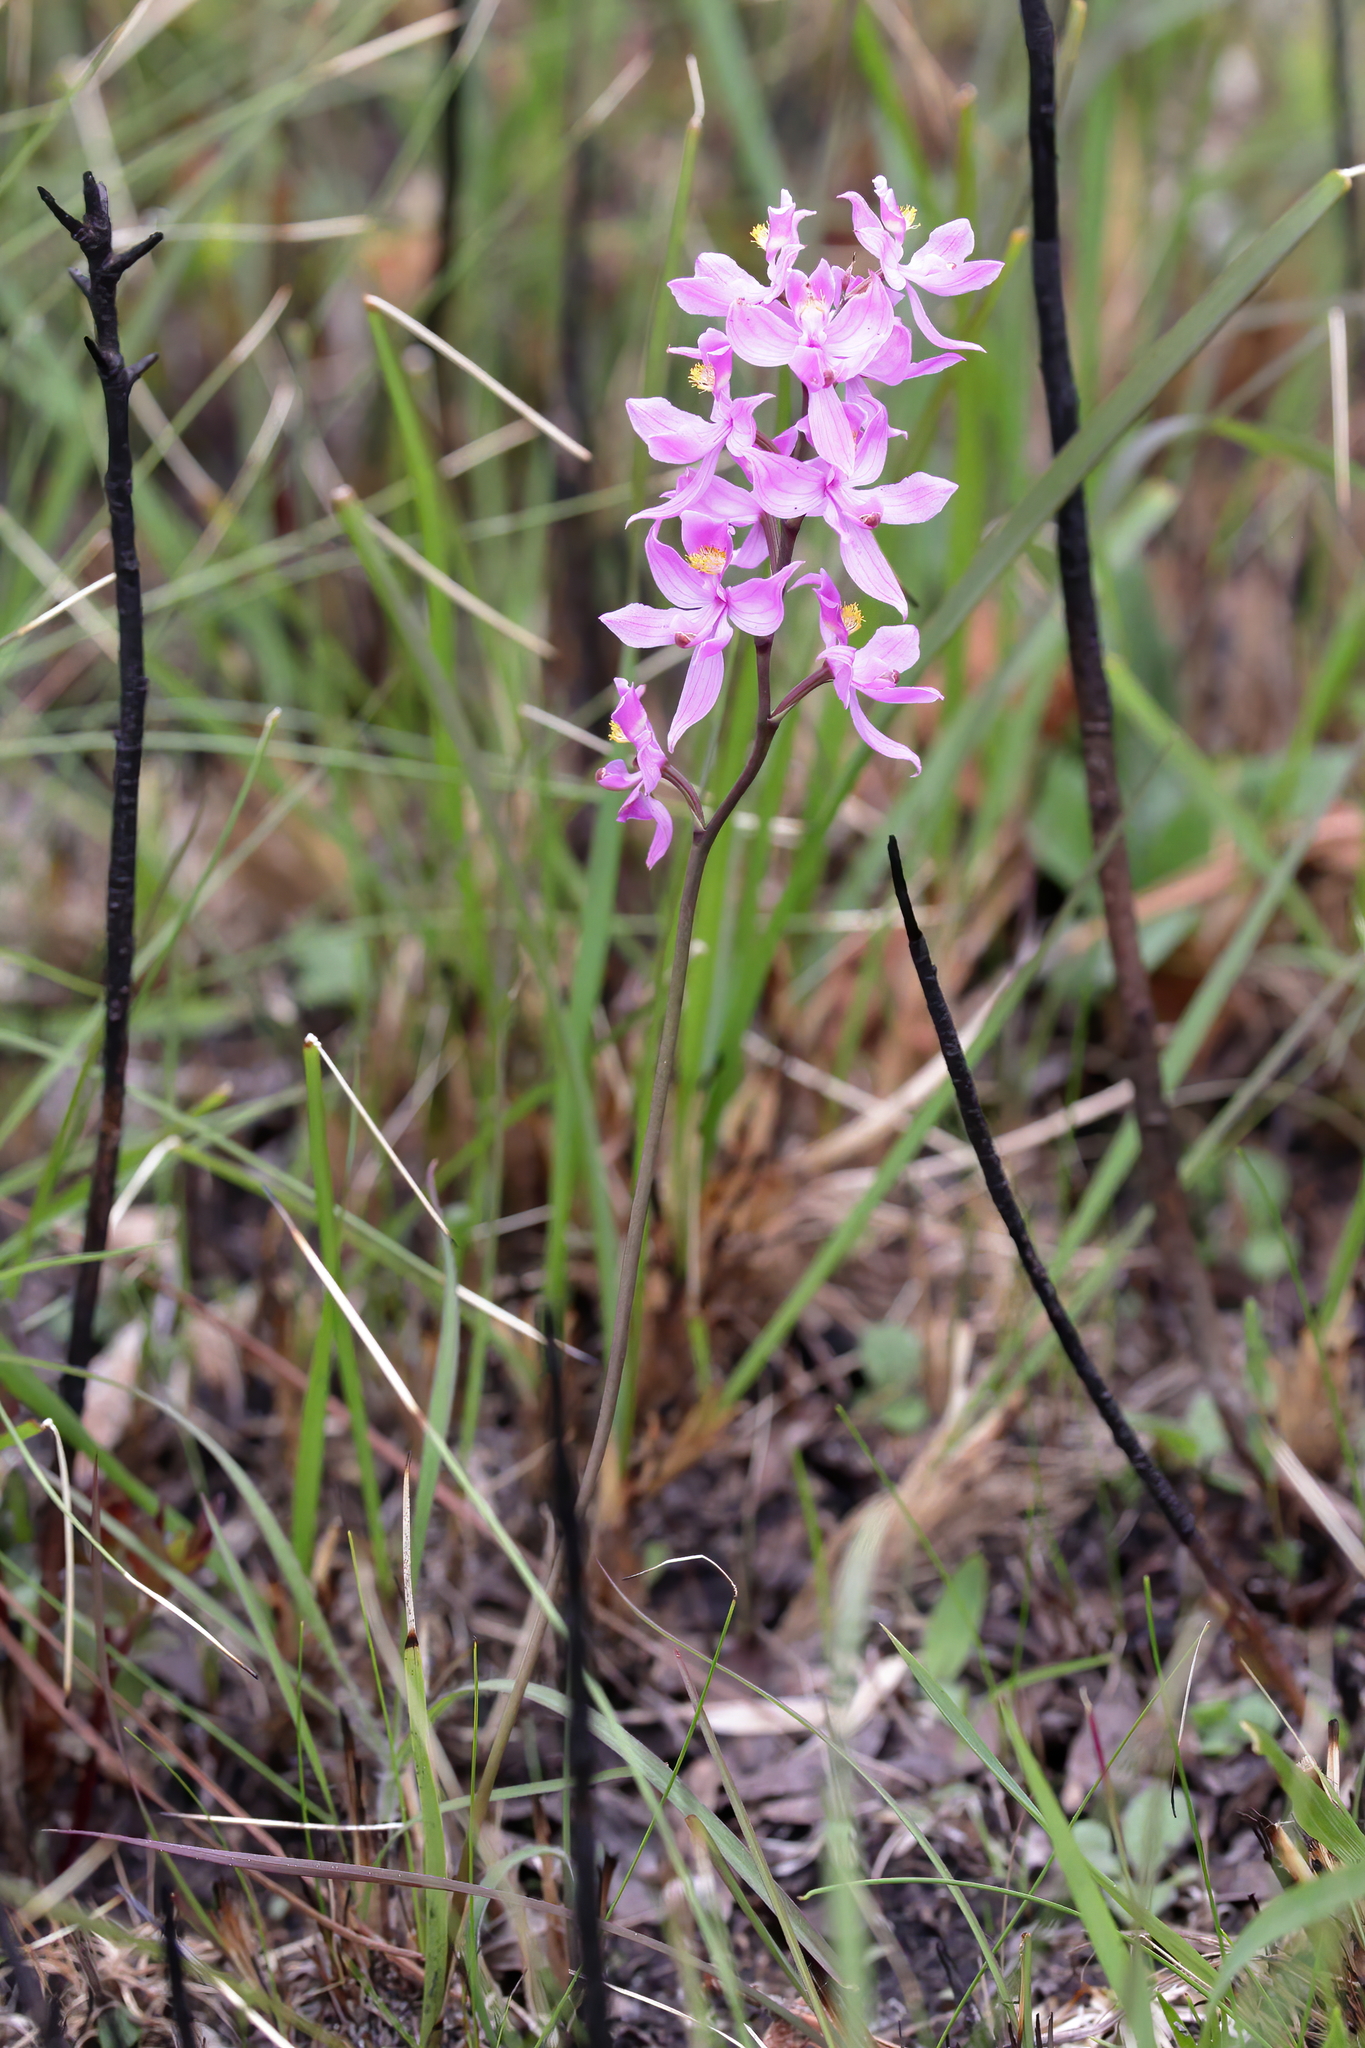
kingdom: Plantae
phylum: Tracheophyta
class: Liliopsida
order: Asparagales
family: Orchidaceae
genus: Calopogon
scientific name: Calopogon multiflorus
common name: Many-flowered grass-pink orchid
